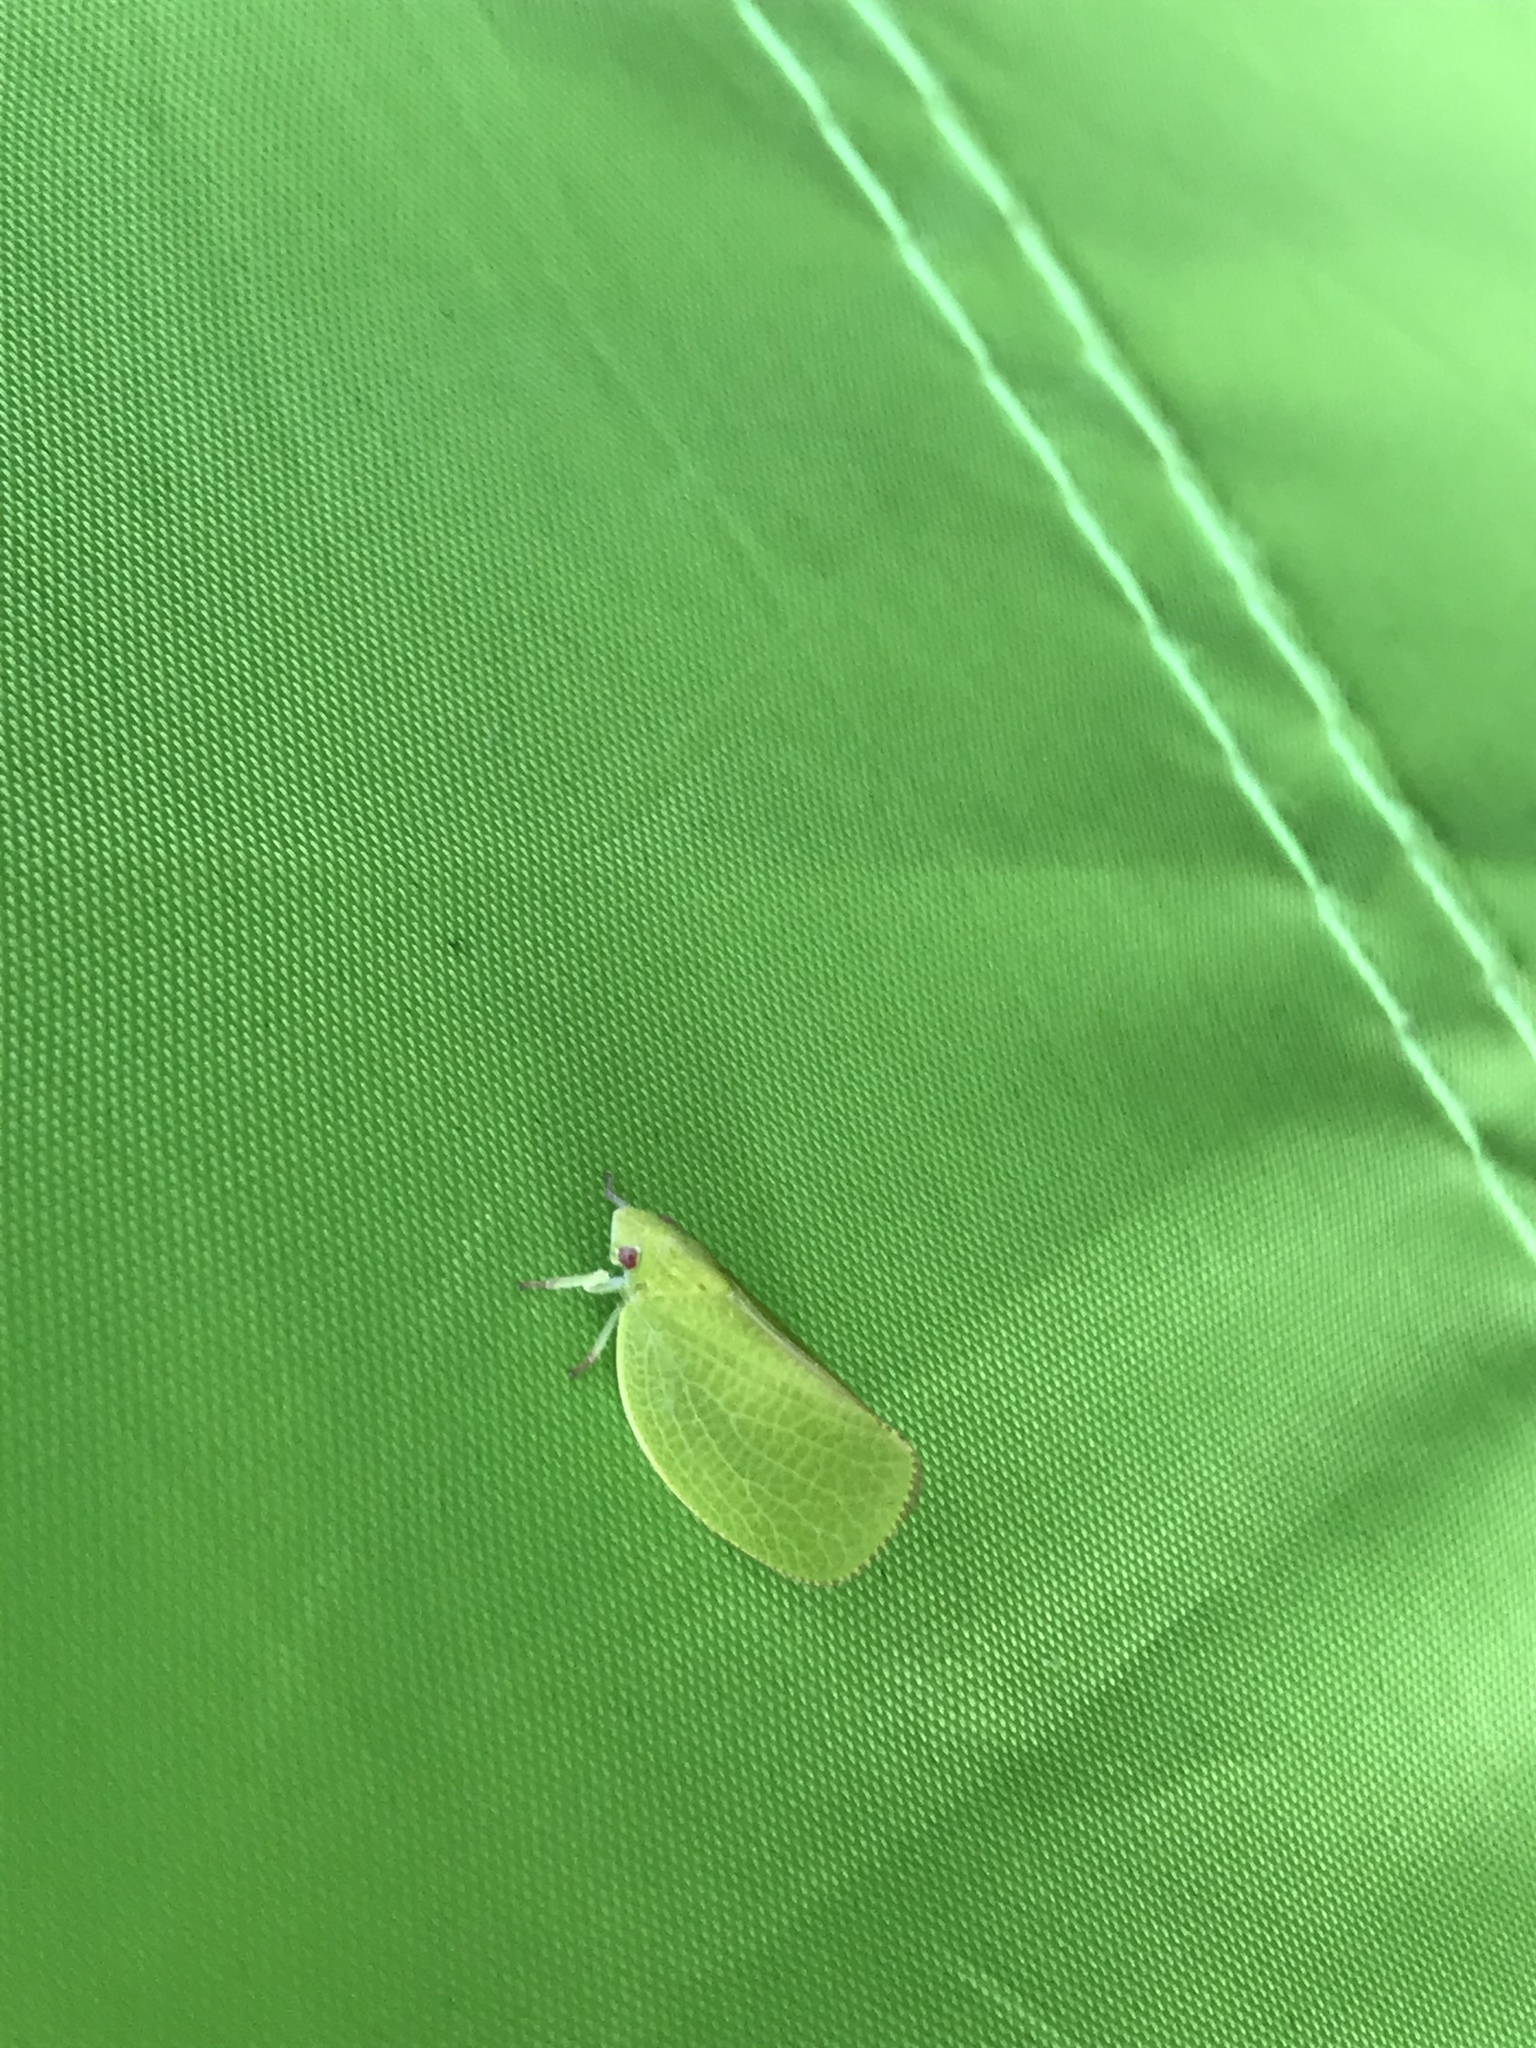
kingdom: Animalia
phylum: Arthropoda
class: Insecta
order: Hemiptera
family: Acanaloniidae
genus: Acanalonia
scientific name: Acanalonia conica
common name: Green cone-headed planthopper
